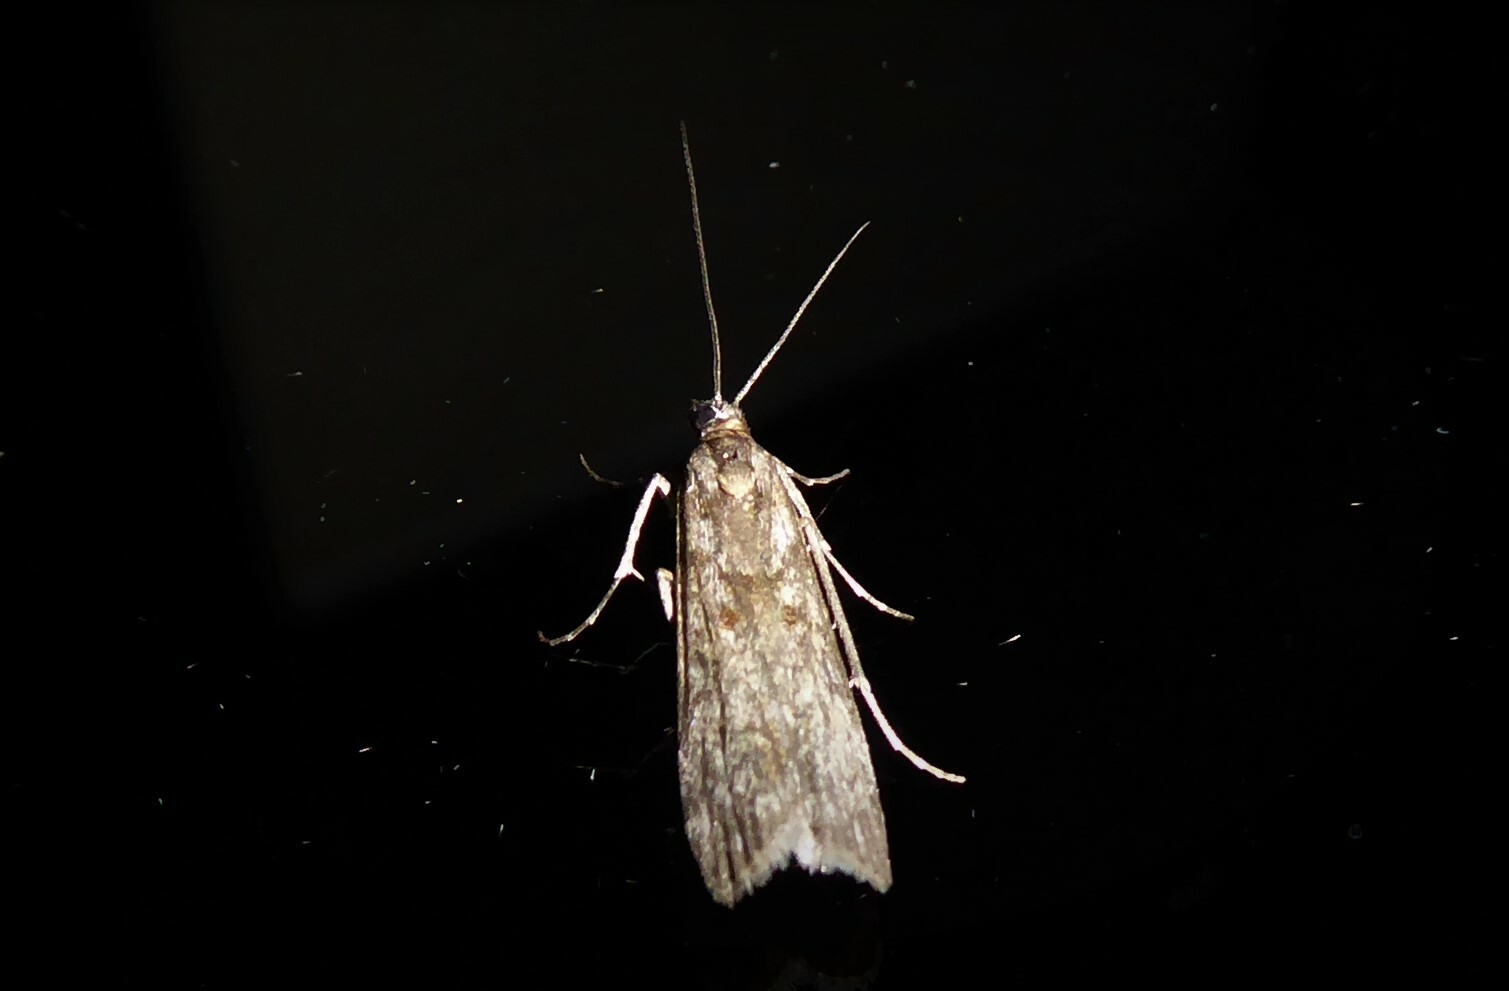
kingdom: Animalia
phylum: Arthropoda
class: Insecta
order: Lepidoptera
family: Crambidae
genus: Eudonia
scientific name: Eudonia leptalea
